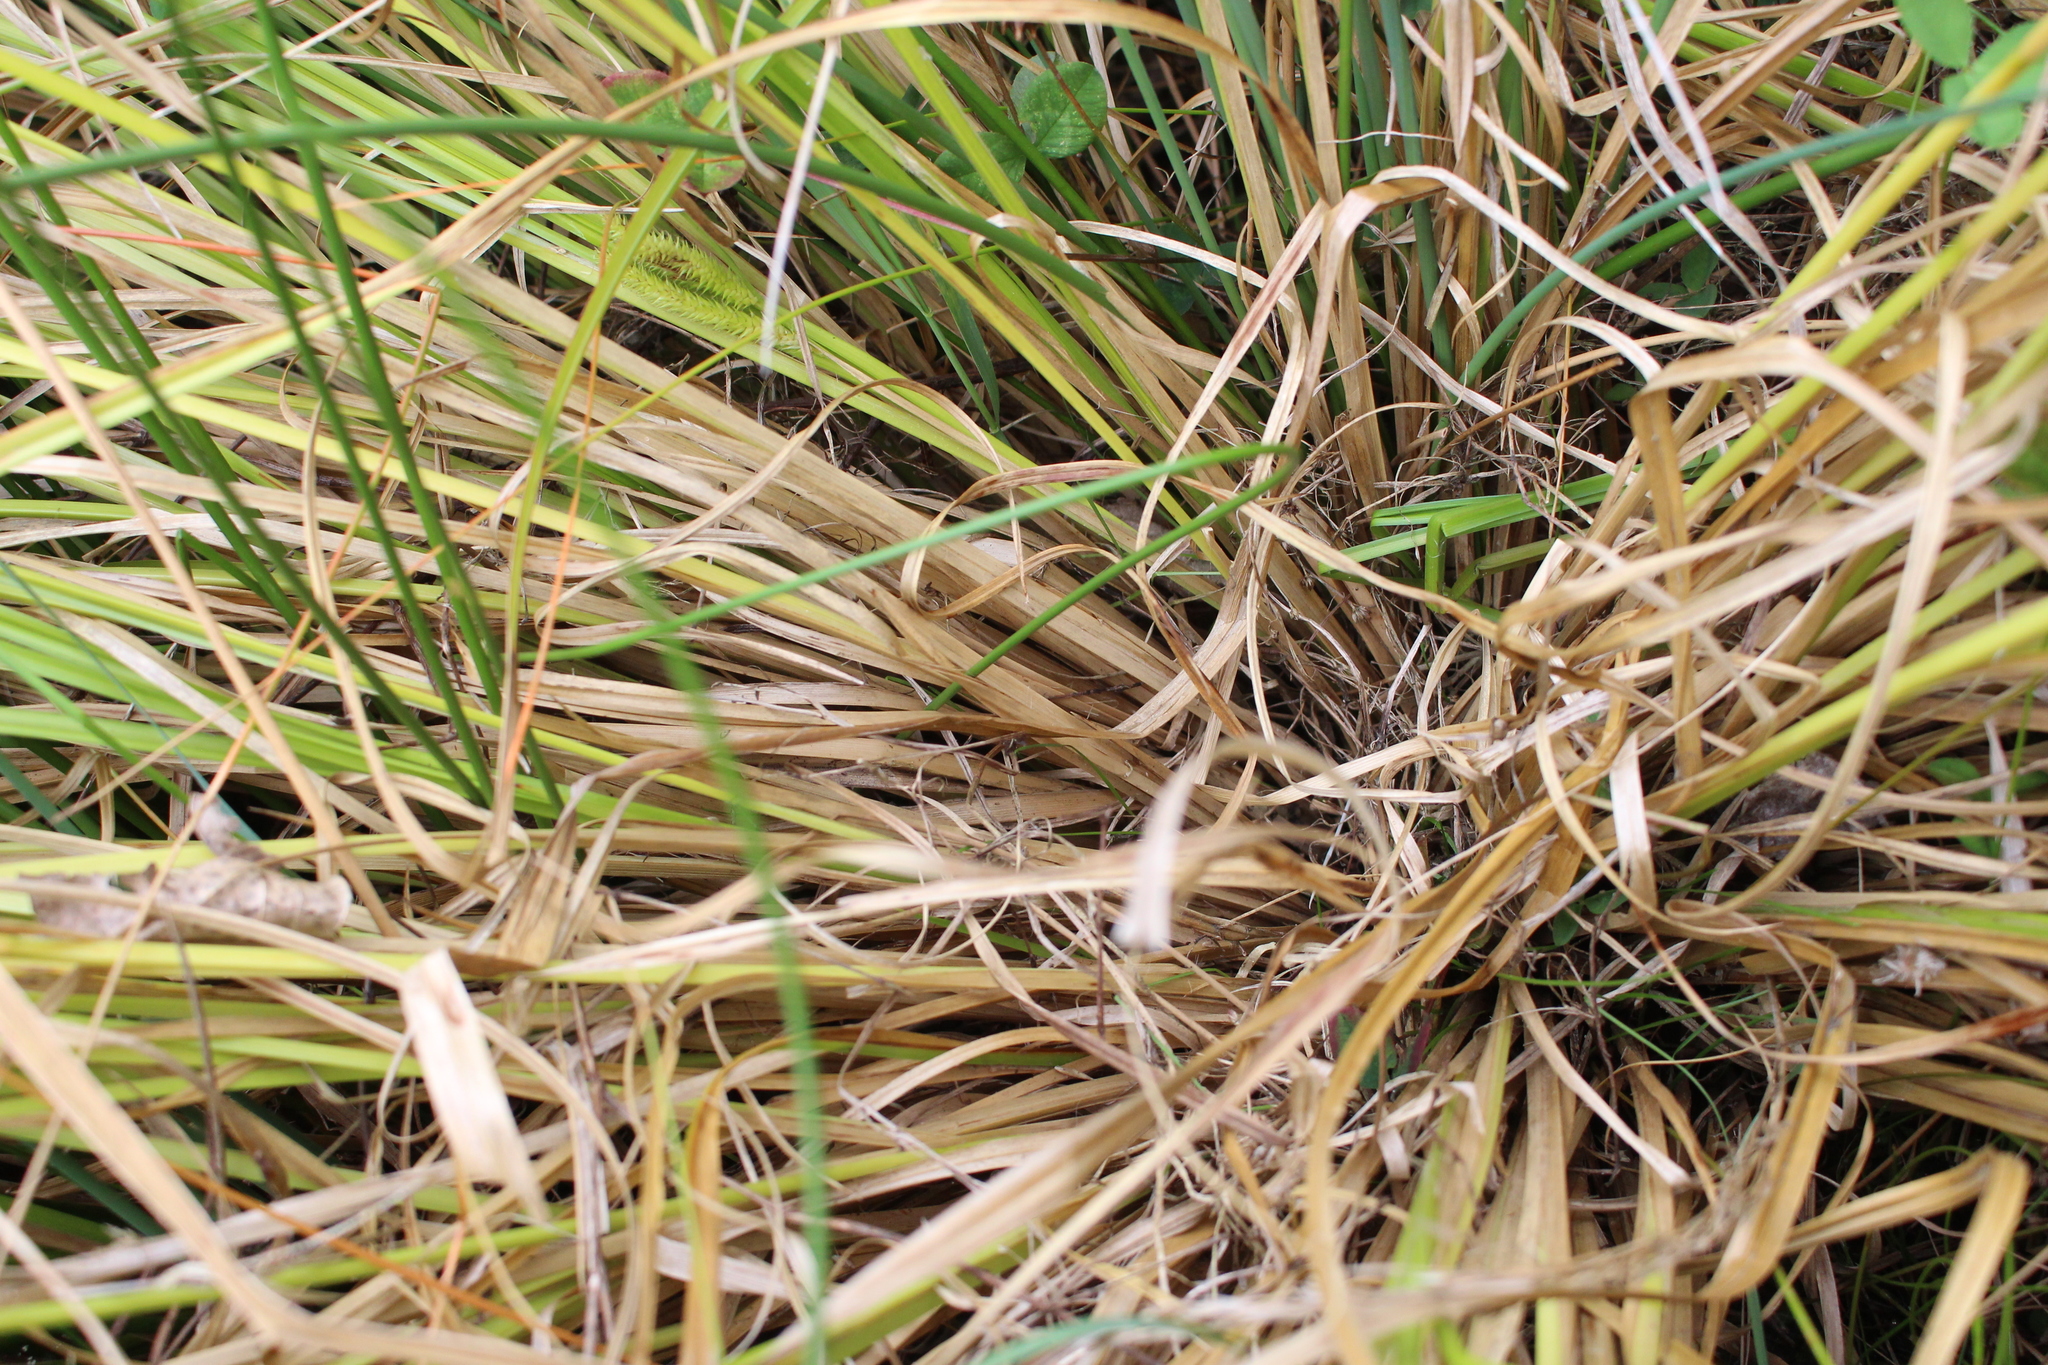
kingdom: Plantae
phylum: Tracheophyta
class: Liliopsida
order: Poales
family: Cyperaceae
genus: Carex
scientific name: Carex maorica
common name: Maori sedge
